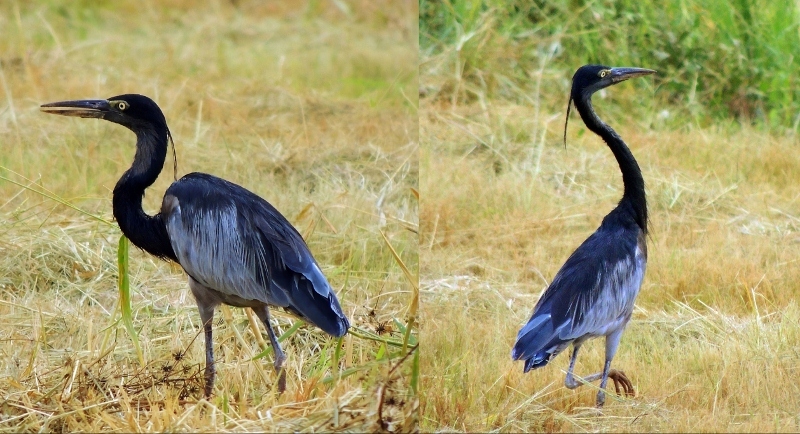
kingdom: Animalia
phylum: Chordata
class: Aves
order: Pelecaniformes
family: Ardeidae
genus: Ardea
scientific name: Ardea melanocephala
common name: Black-headed heron
